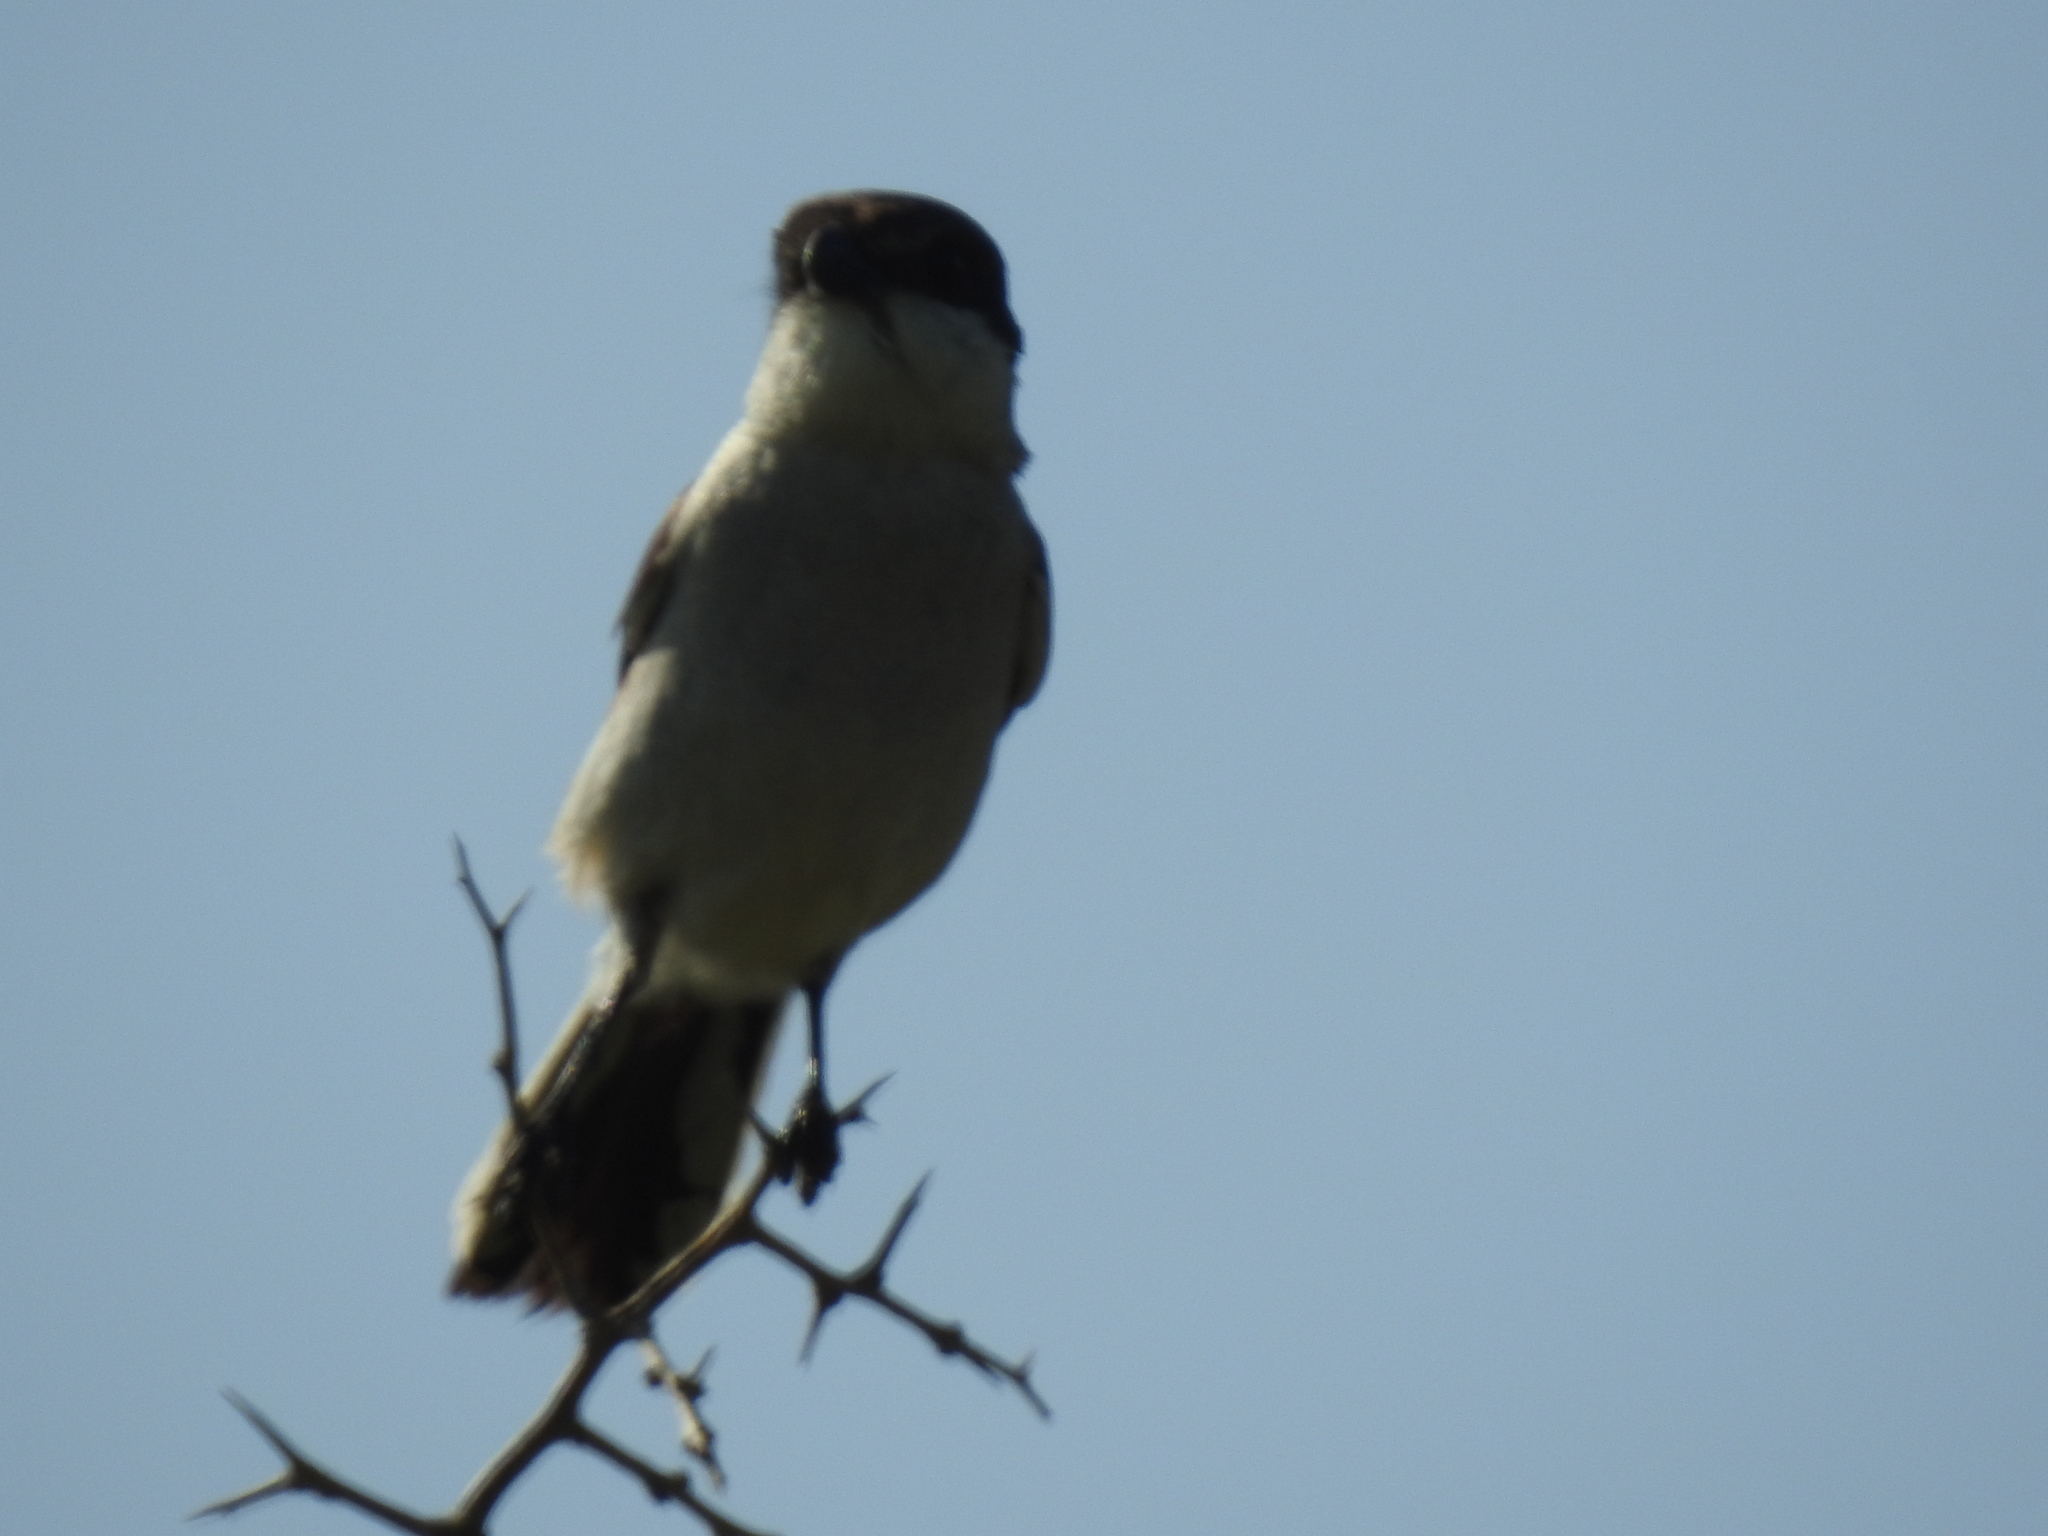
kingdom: Animalia
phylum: Chordata
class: Aves
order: Passeriformes
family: Laniidae
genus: Lanius
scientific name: Lanius collaris
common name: Southern fiscal
